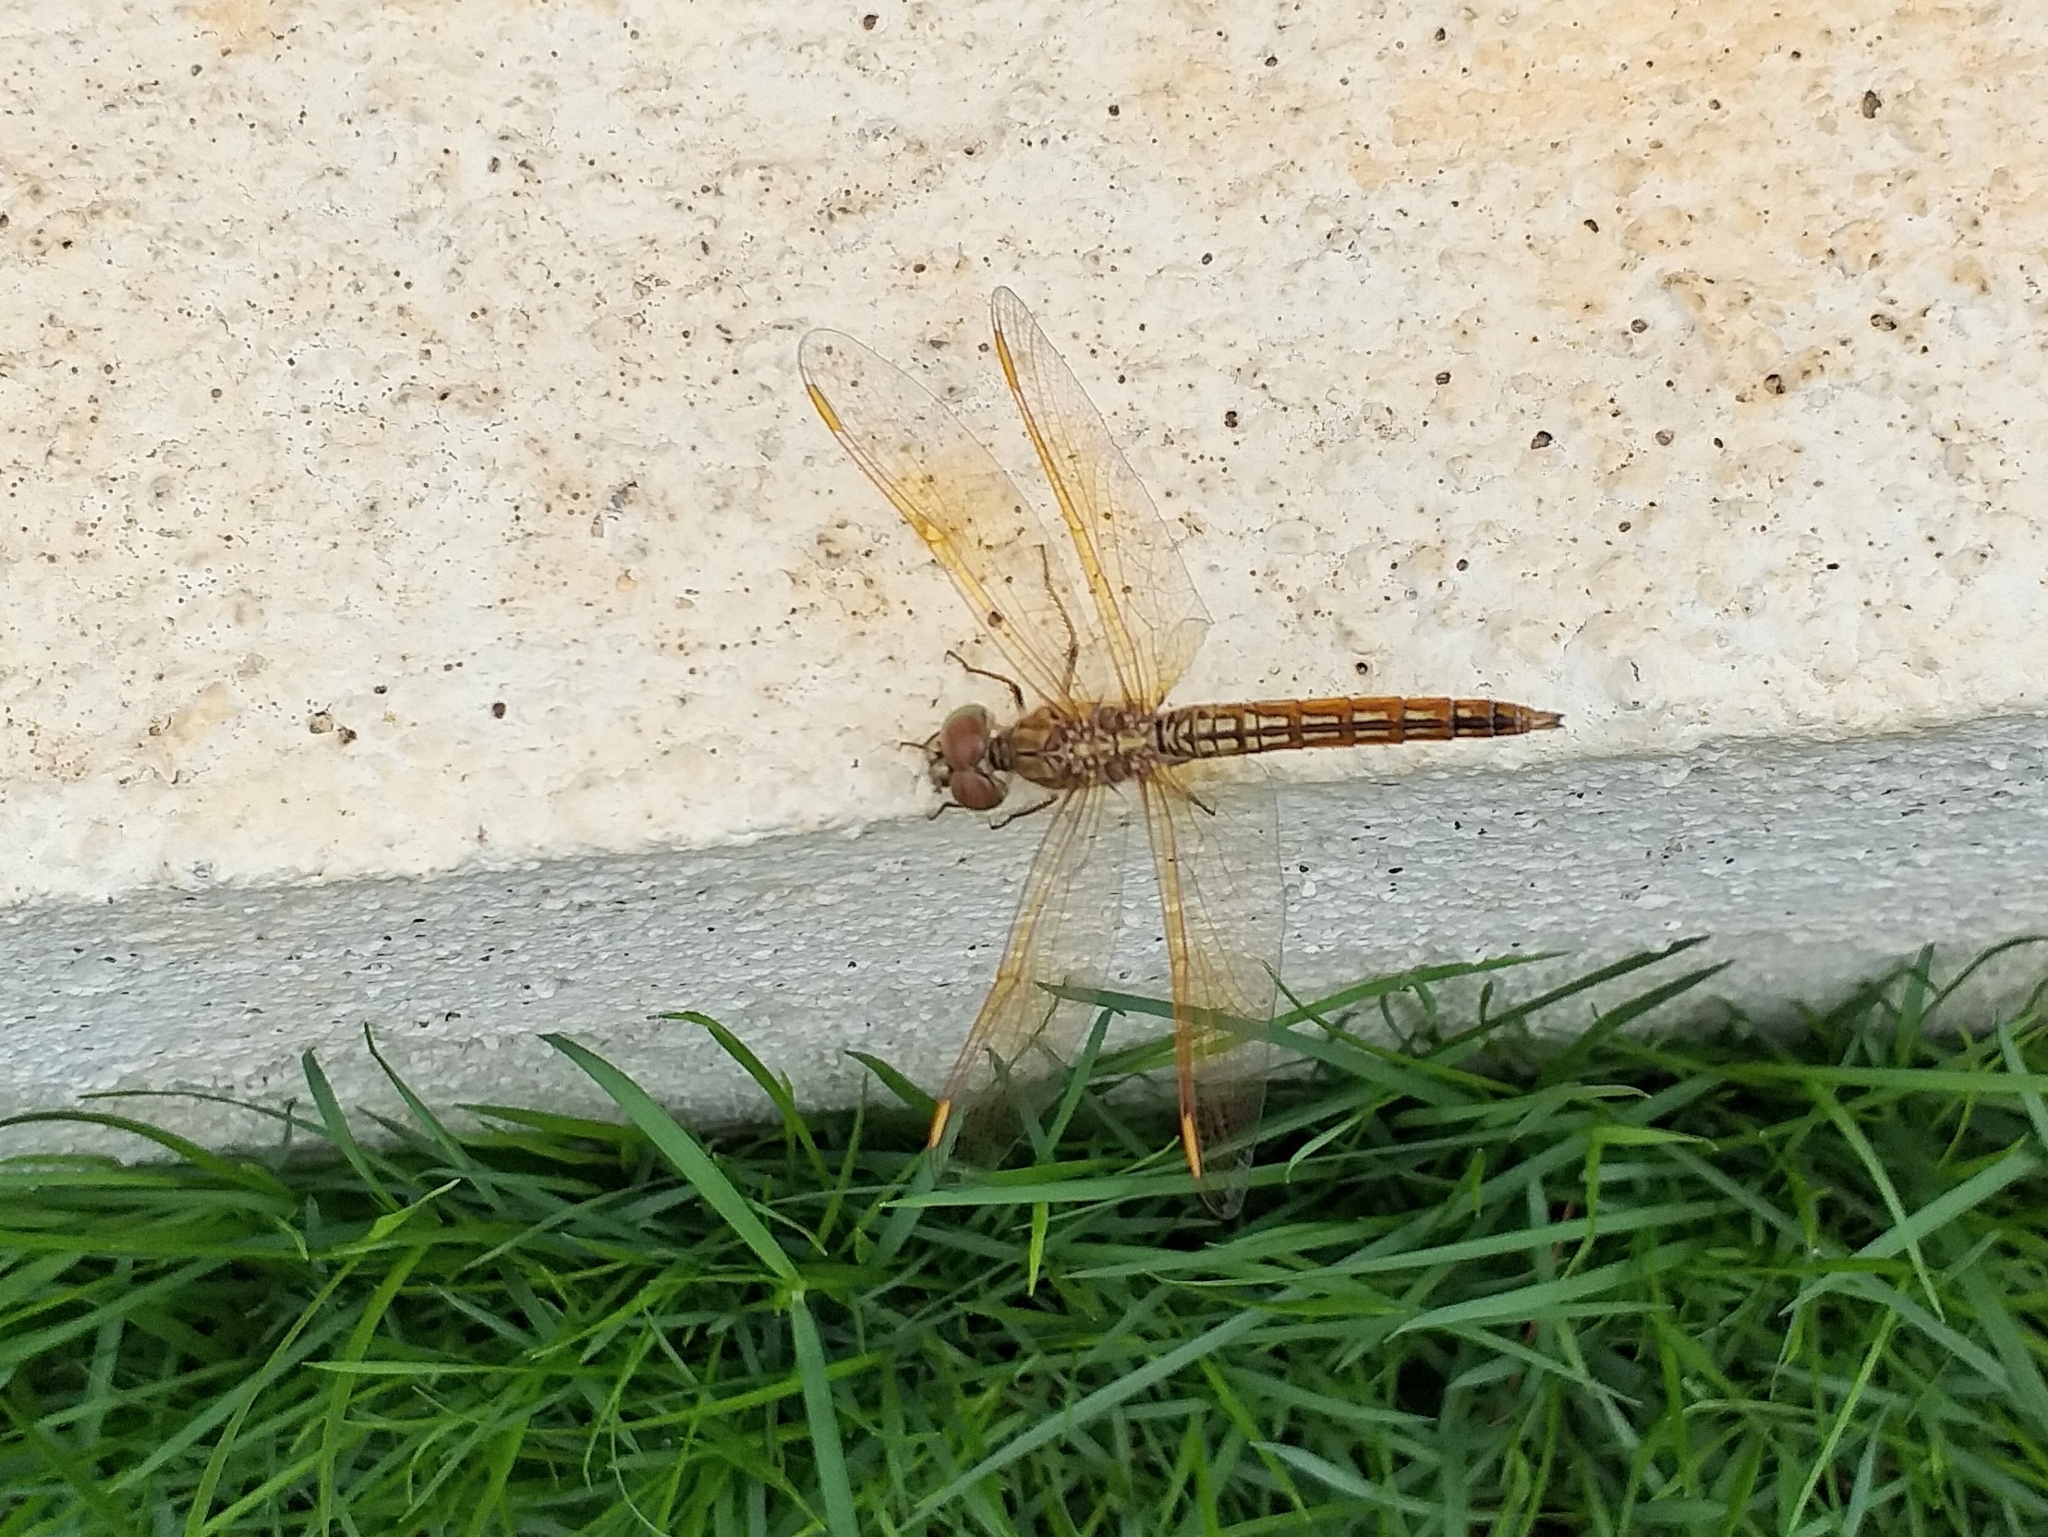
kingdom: Animalia
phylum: Arthropoda
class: Insecta
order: Odonata
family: Libellulidae
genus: Brachythemis
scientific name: Brachythemis contaminata
